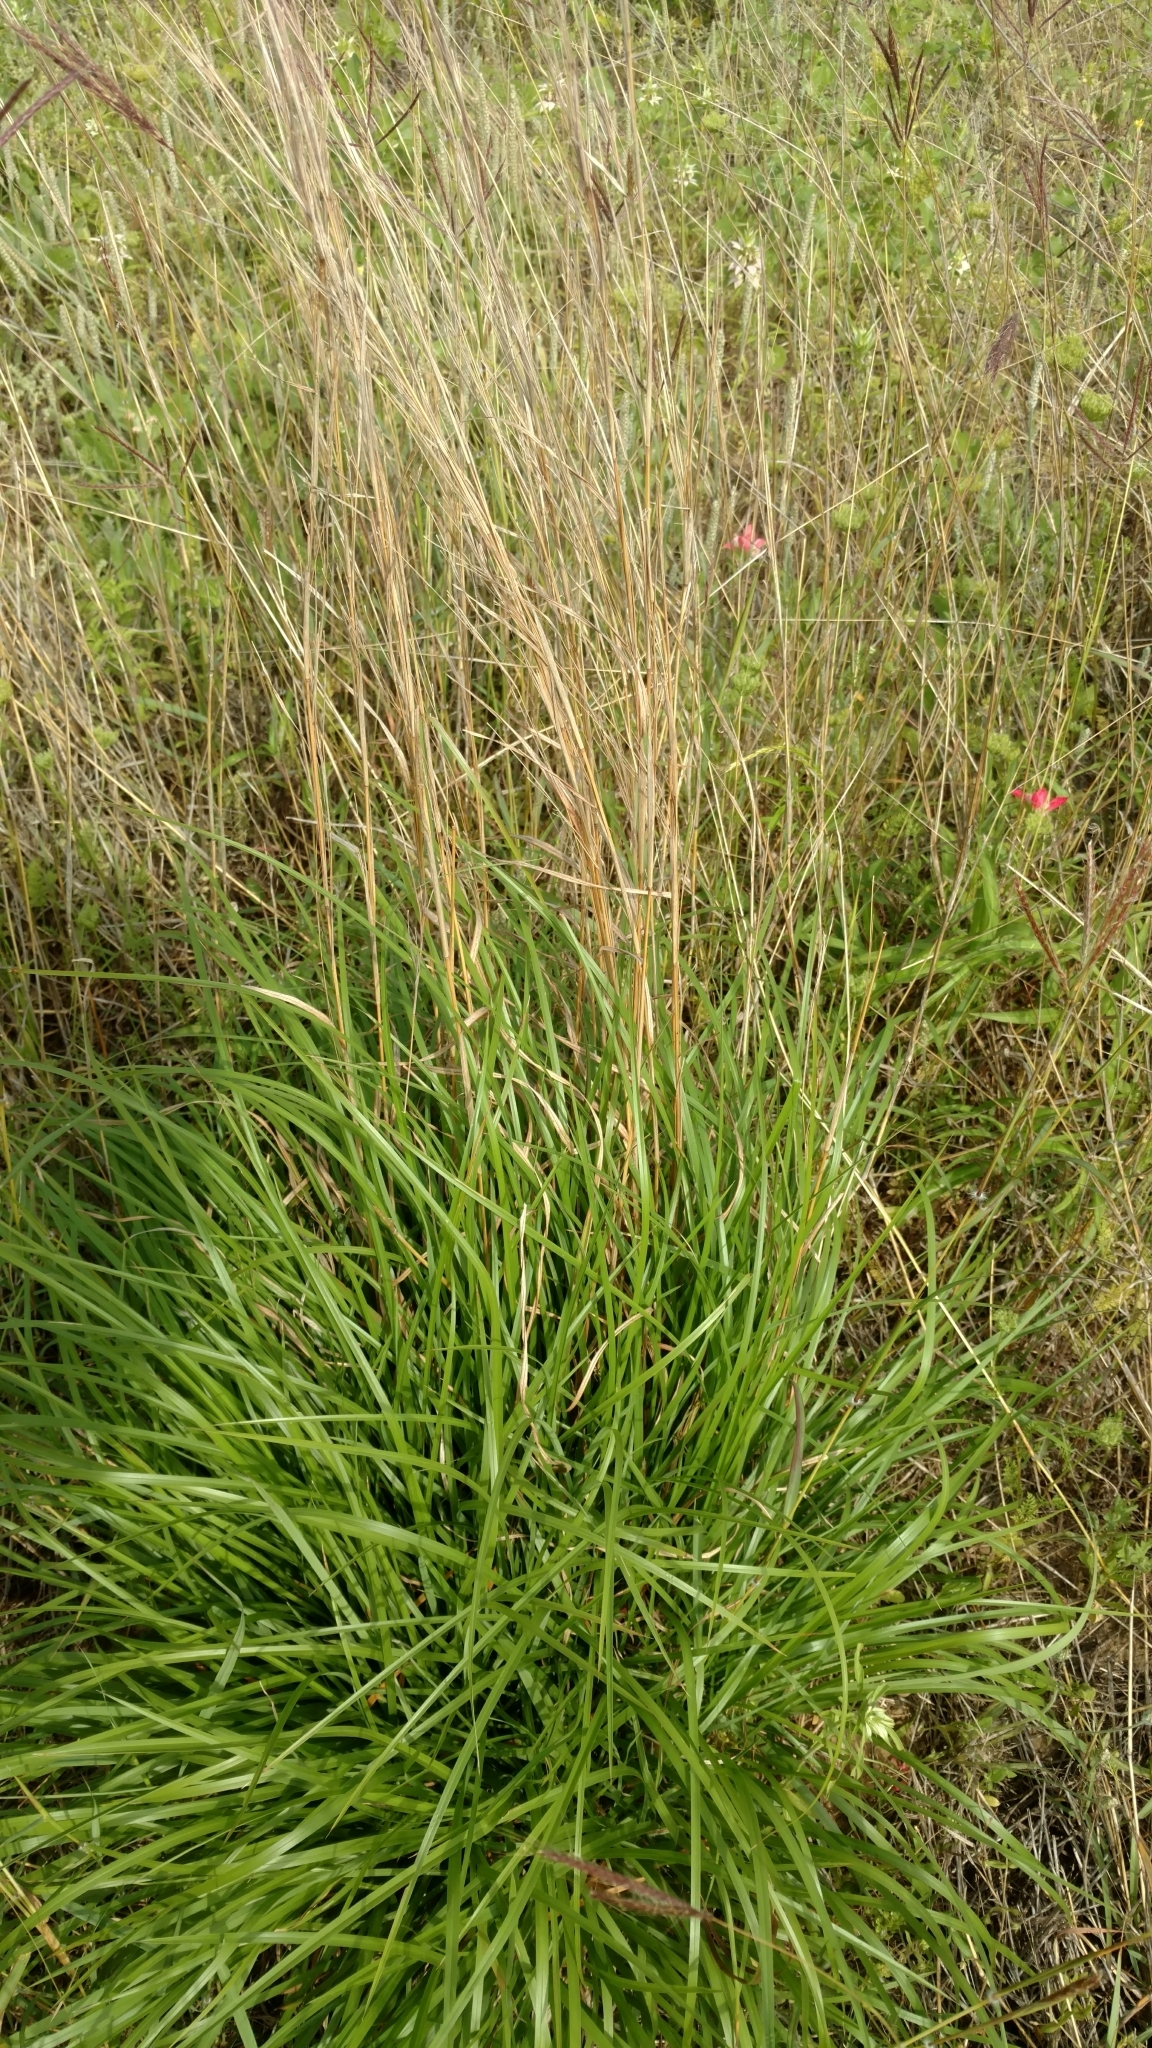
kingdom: Plantae
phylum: Tracheophyta
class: Liliopsida
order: Poales
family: Poaceae
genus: Schizachyrium
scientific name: Schizachyrium scoparium
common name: Little bluestem
